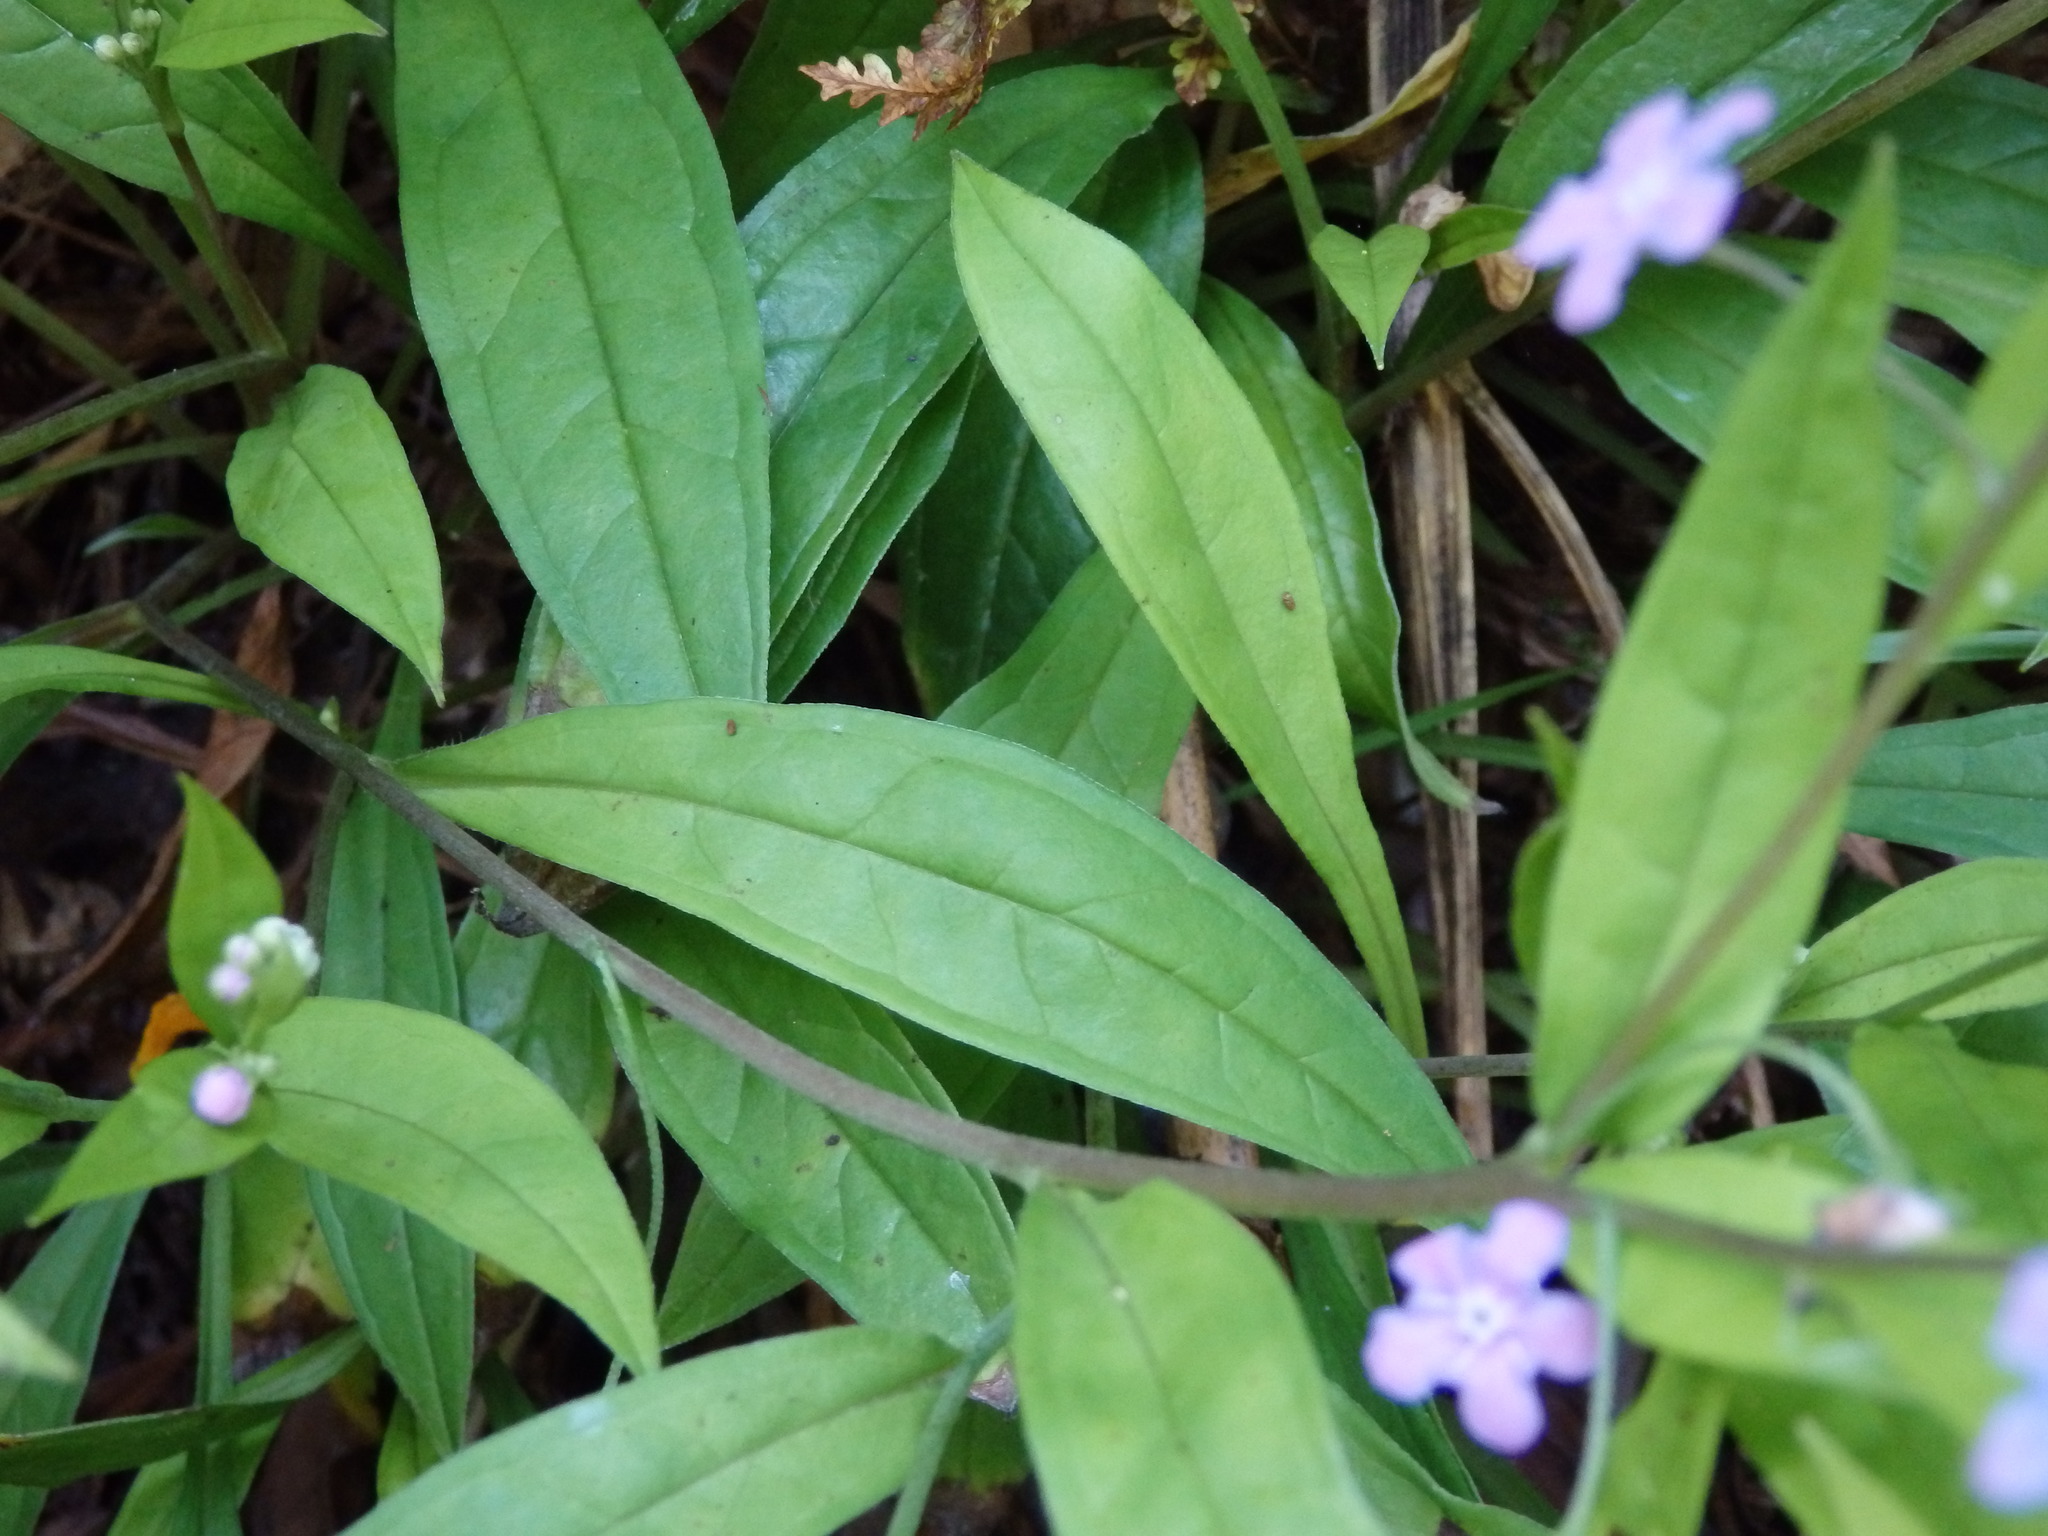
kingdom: Plantae
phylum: Tracheophyta
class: Magnoliopsida
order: Boraginales
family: Boraginaceae
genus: Omphalodes
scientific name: Omphalodes nitida
